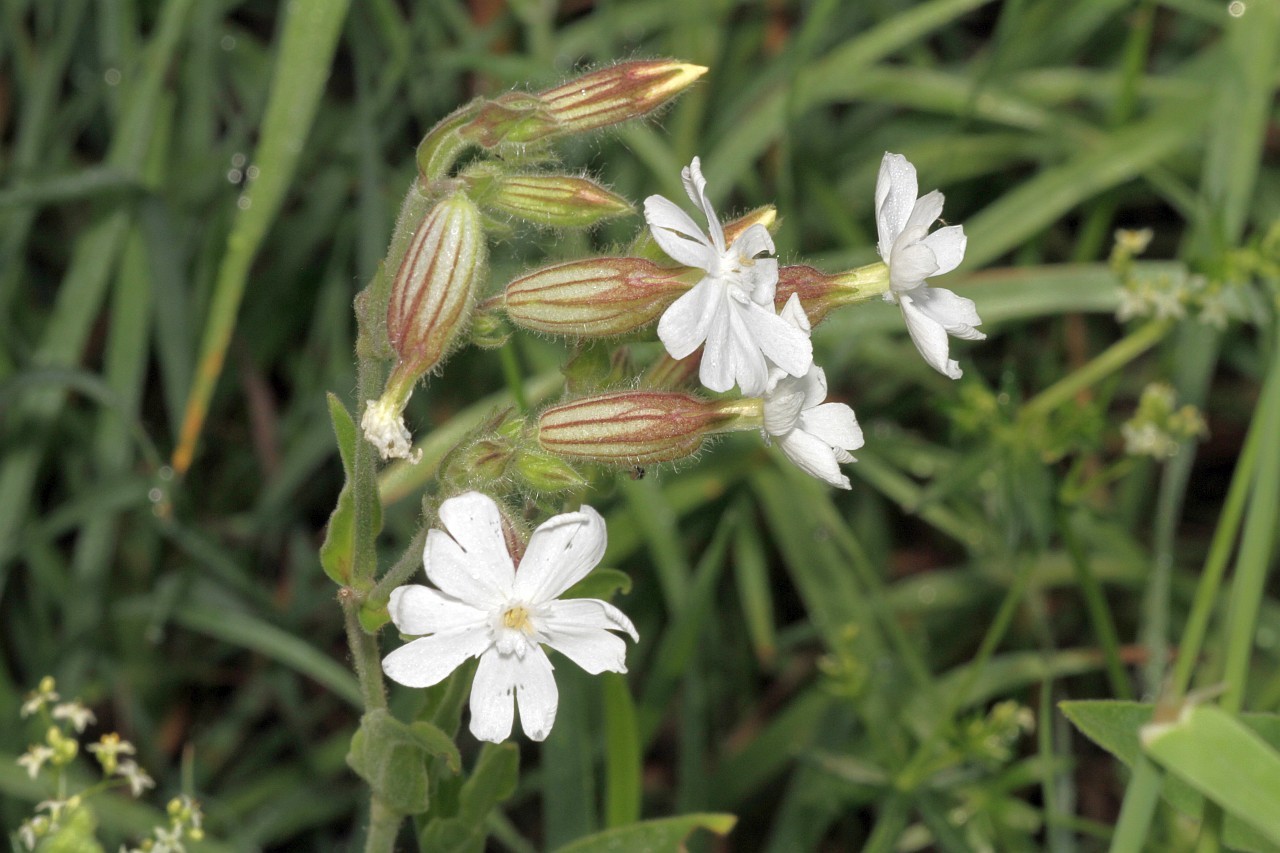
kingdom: Plantae
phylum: Tracheophyta
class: Magnoliopsida
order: Caryophyllales
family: Caryophyllaceae
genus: Silene
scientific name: Silene latifolia
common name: White campion
